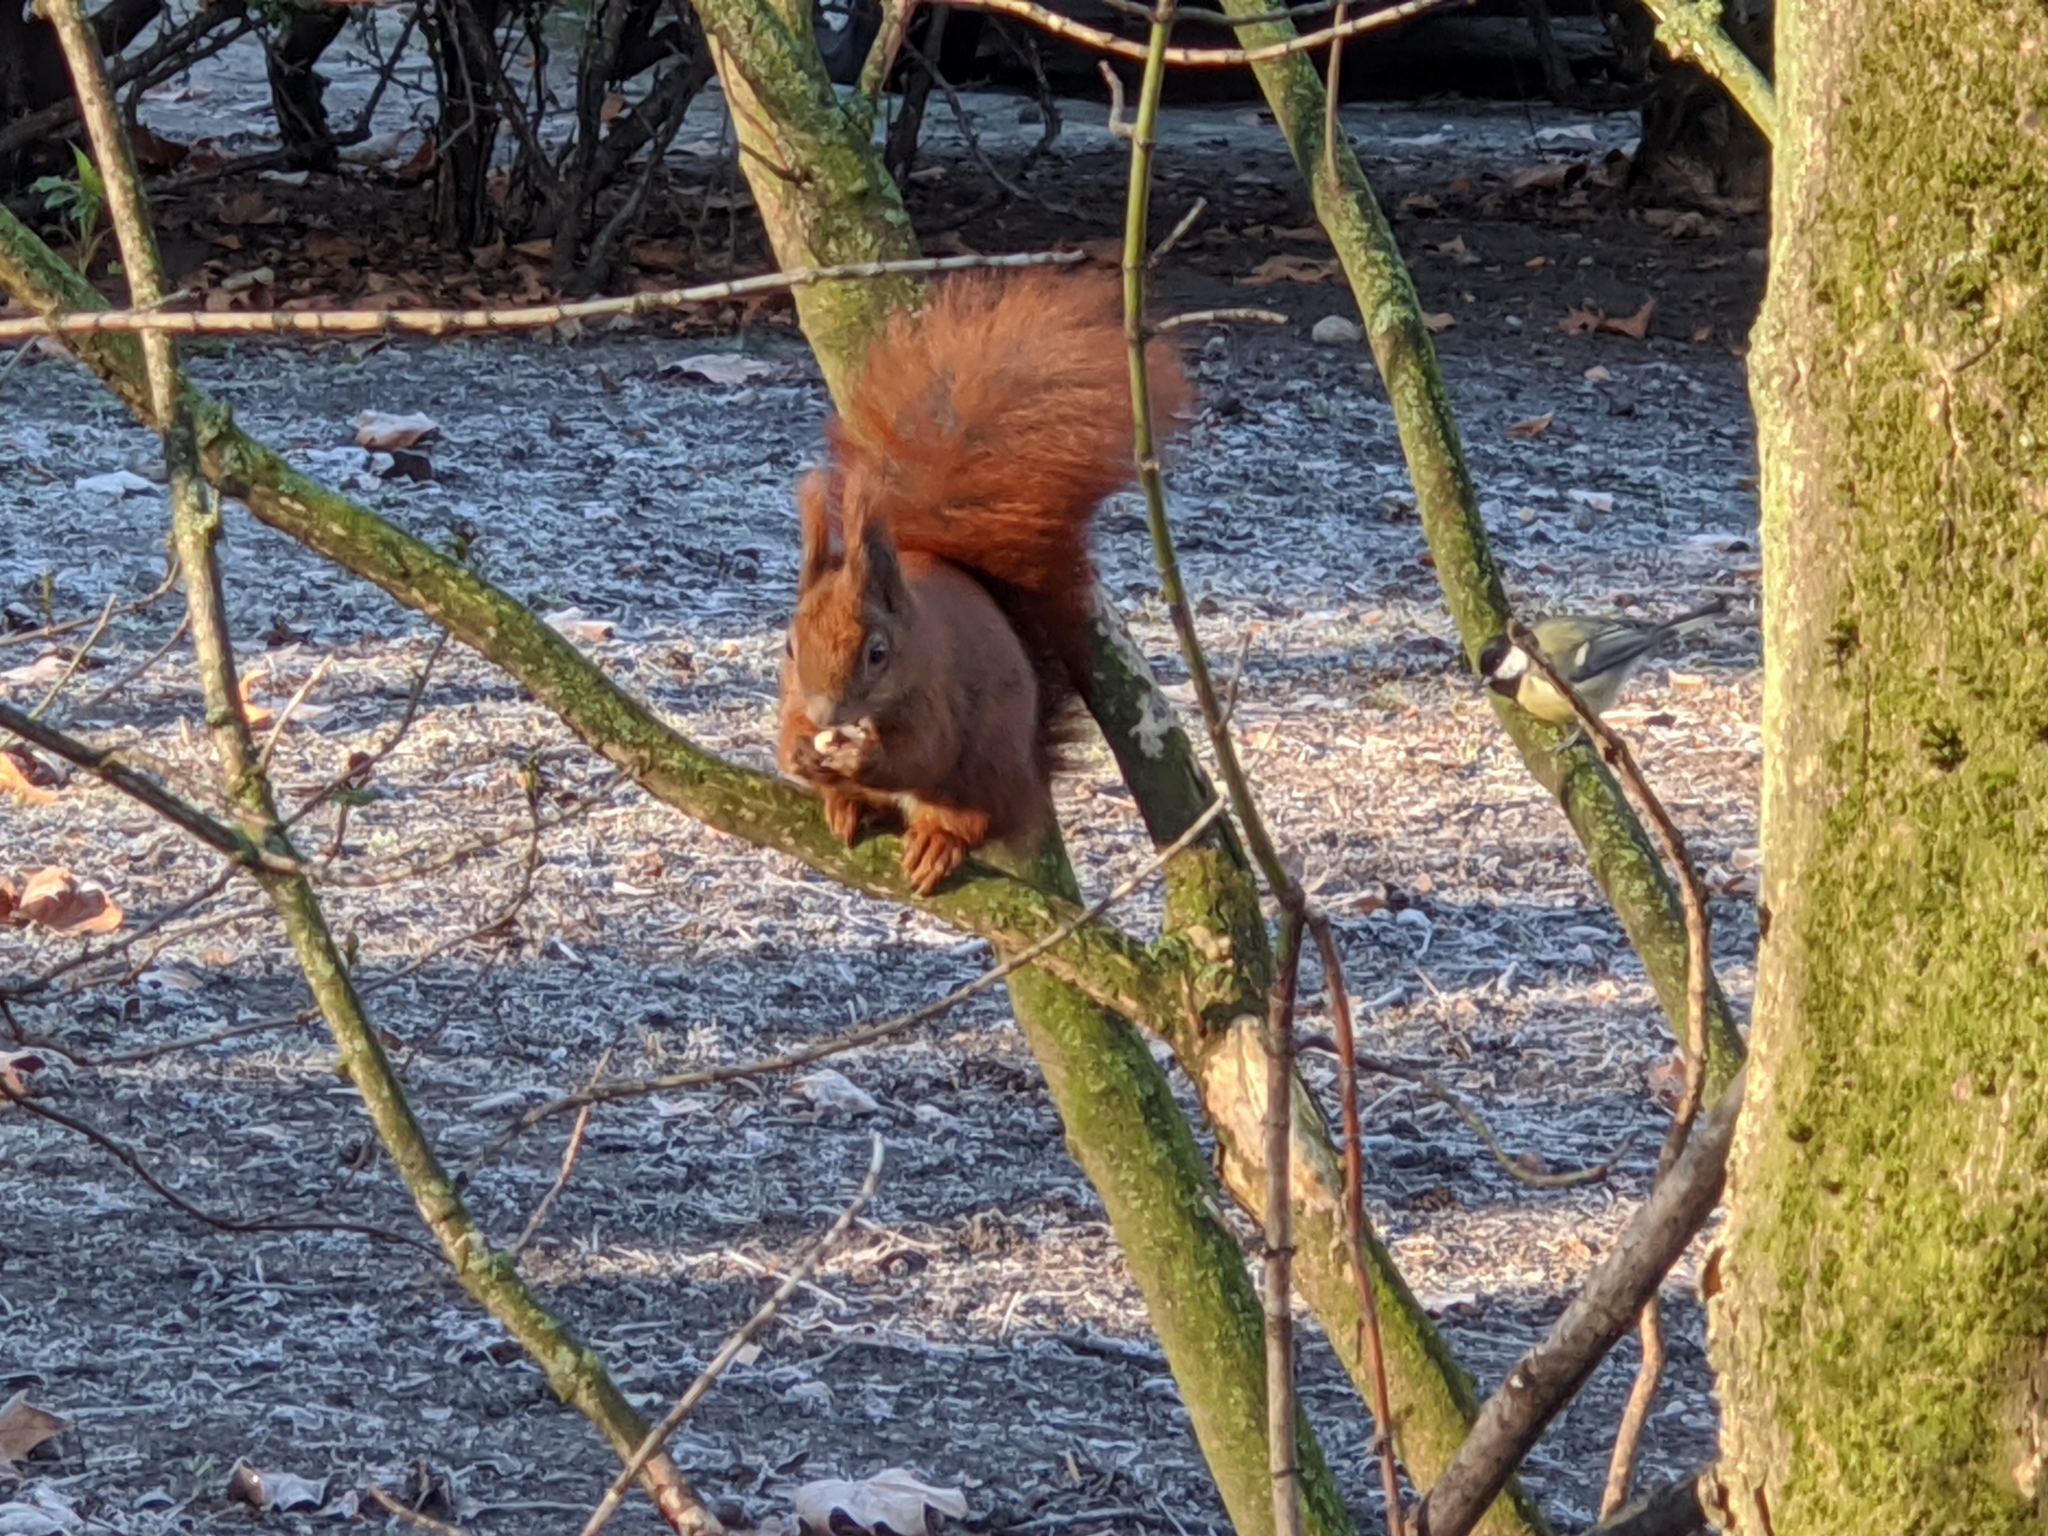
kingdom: Animalia
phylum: Chordata
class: Aves
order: Passeriformes
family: Paridae
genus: Parus
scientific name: Parus major
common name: Great tit
